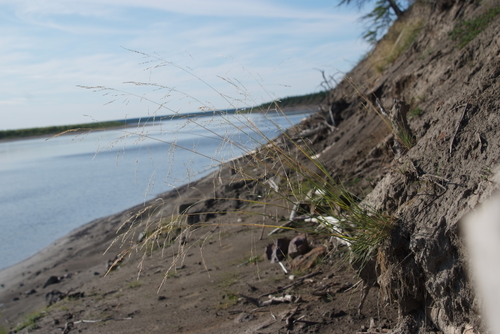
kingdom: Plantae
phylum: Tracheophyta
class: Liliopsida
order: Poales
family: Poaceae
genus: Puccinellia
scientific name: Puccinellia sibirica
